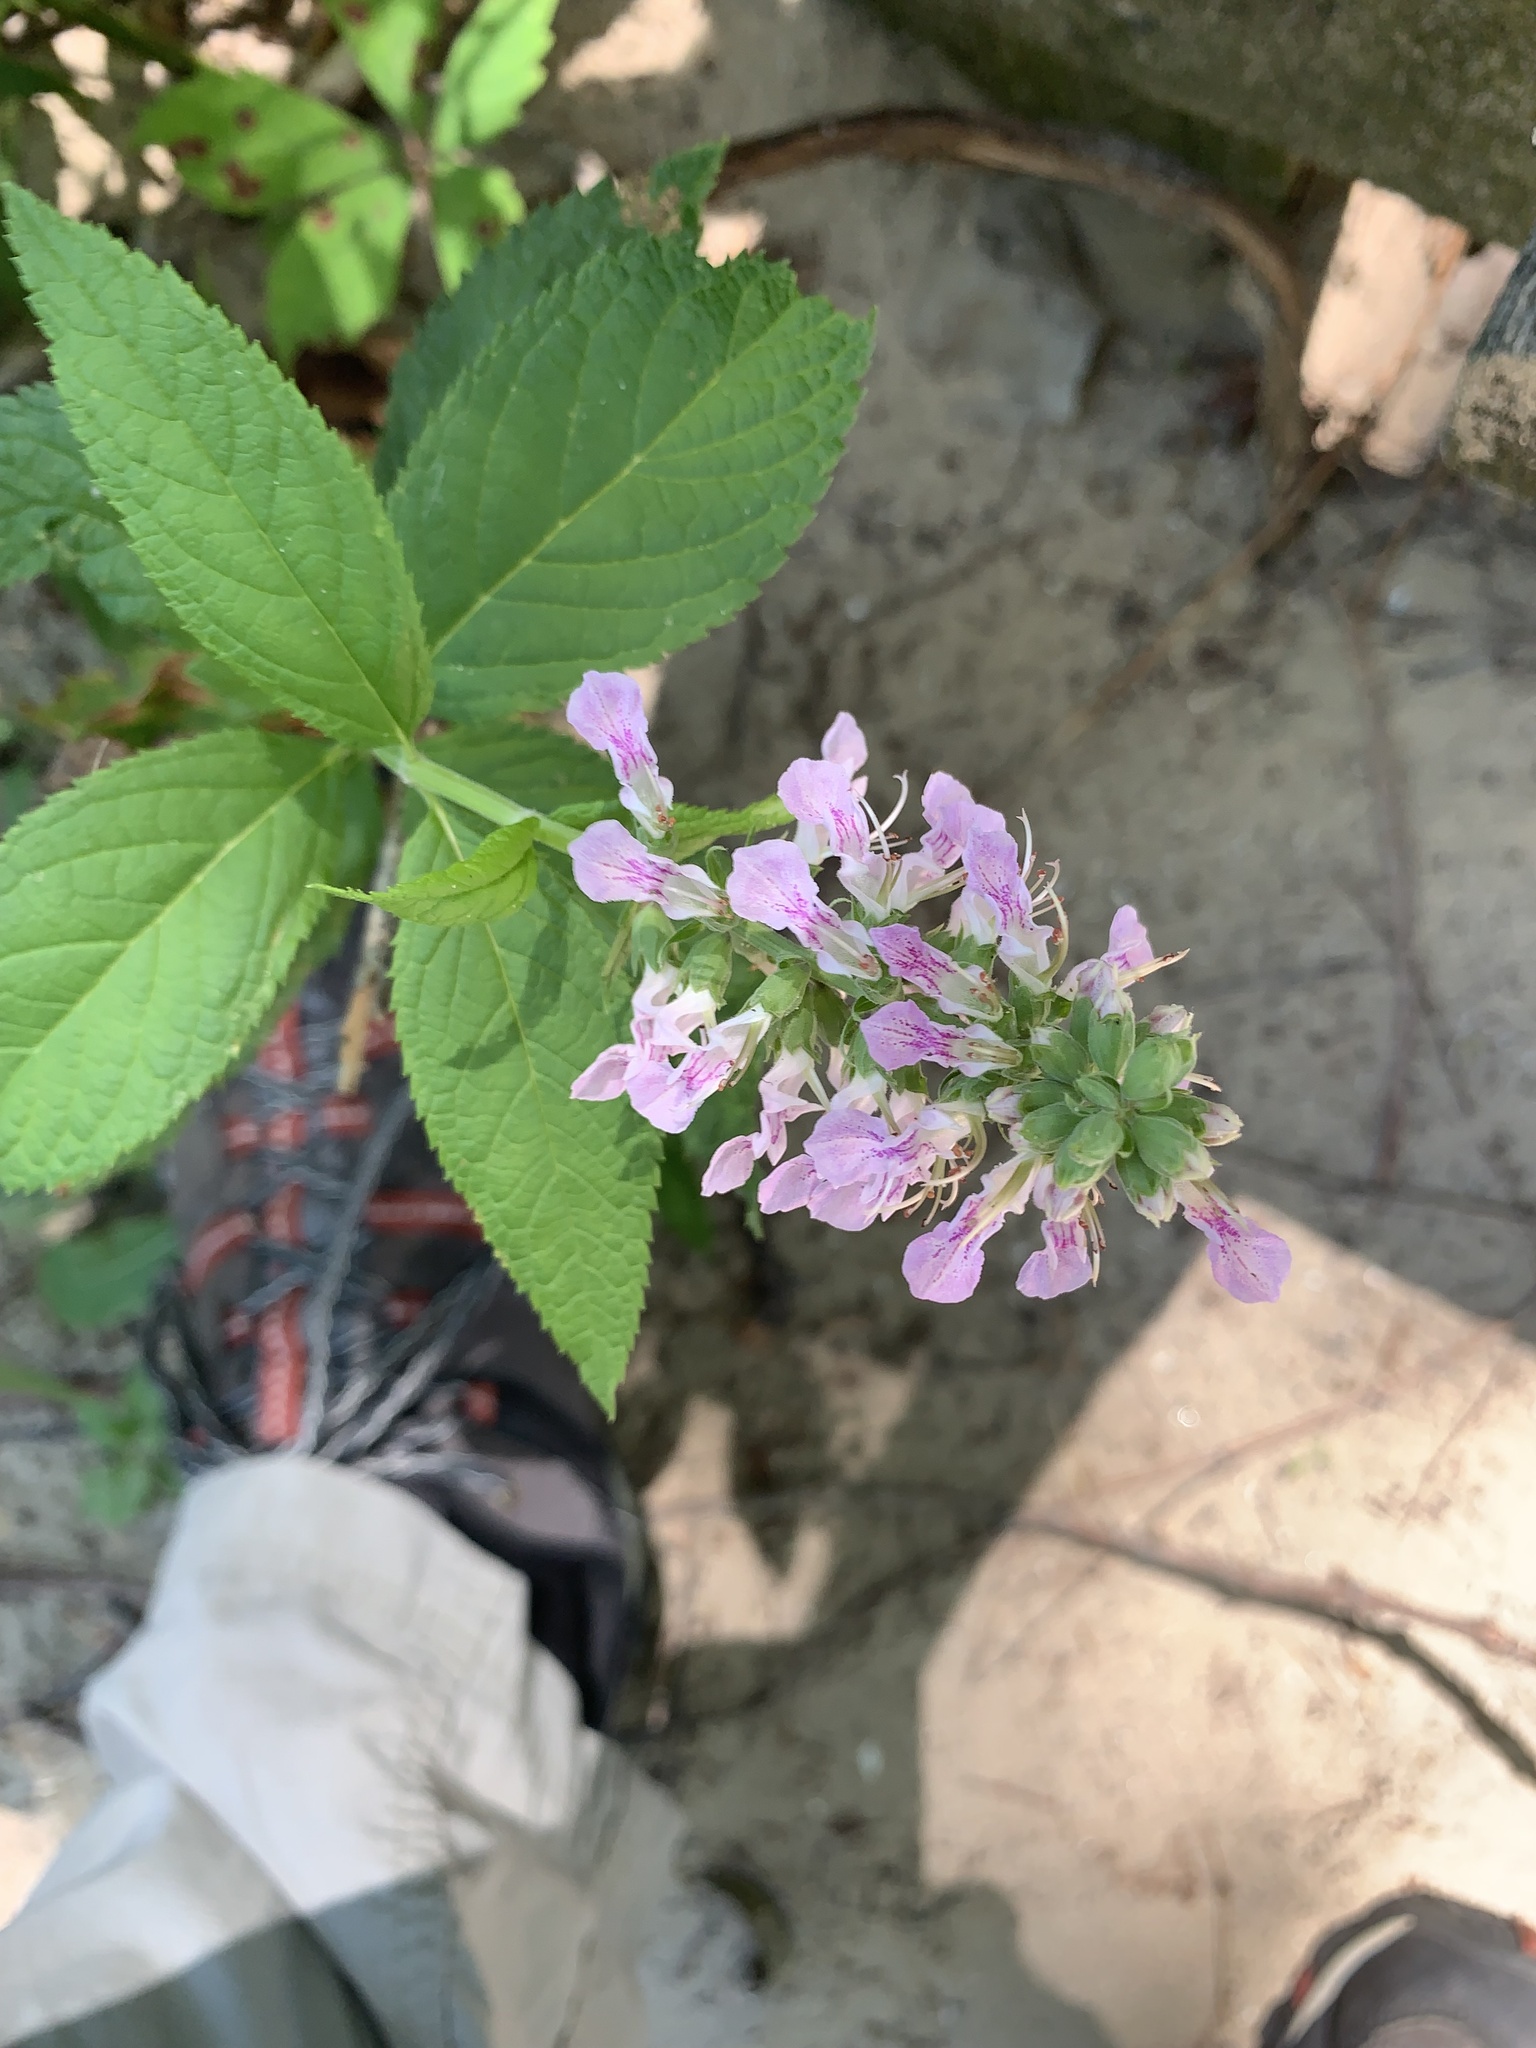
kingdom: Plantae
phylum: Tracheophyta
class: Magnoliopsida
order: Lamiales
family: Lamiaceae
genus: Teucrium
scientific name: Teucrium canadense
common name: American germander
